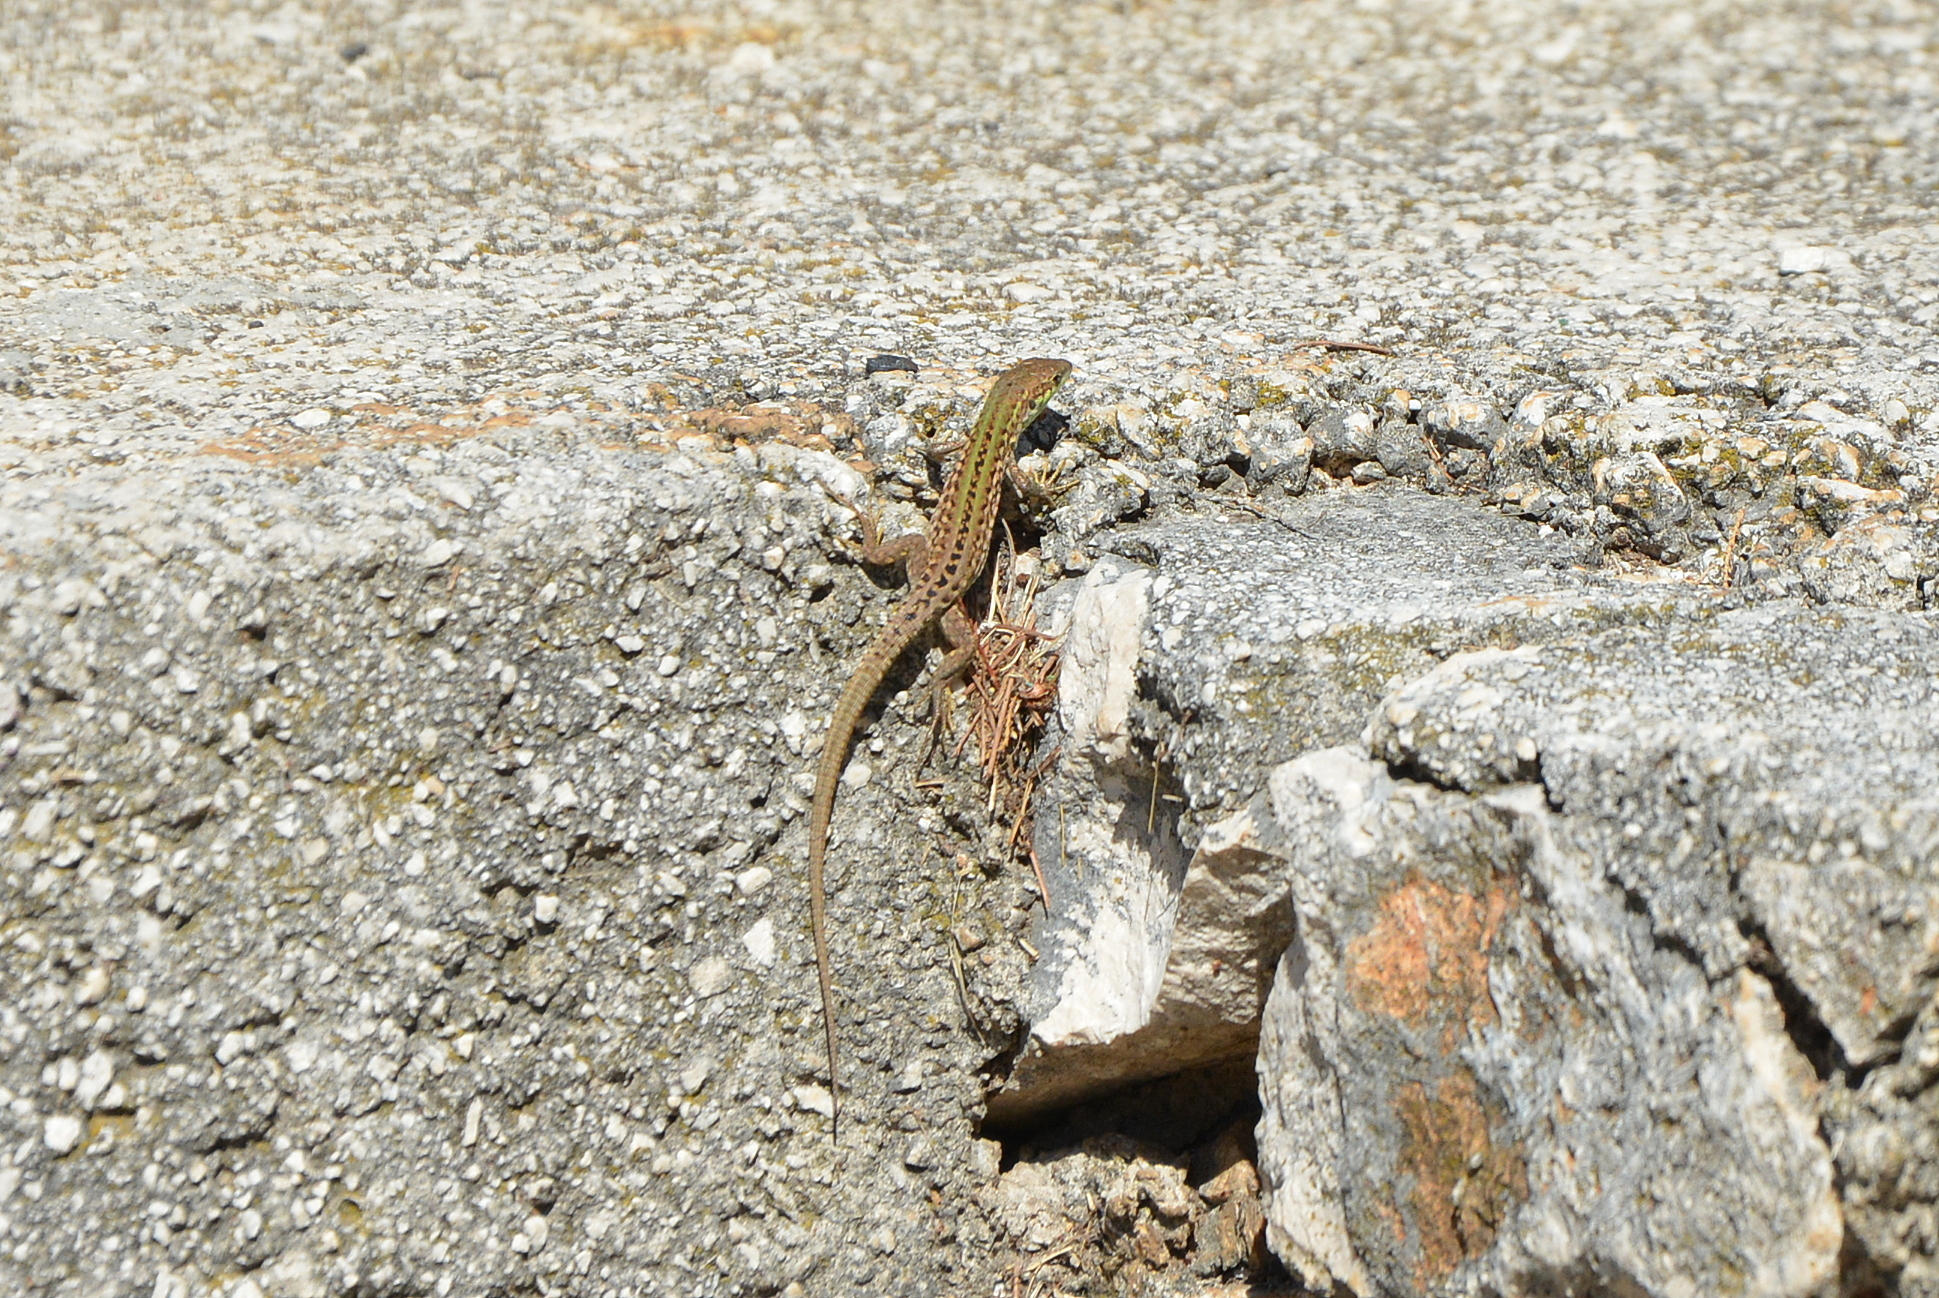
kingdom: Animalia
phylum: Chordata
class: Squamata
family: Lacertidae
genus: Podarcis
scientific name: Podarcis siculus
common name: Italian wall lizard
